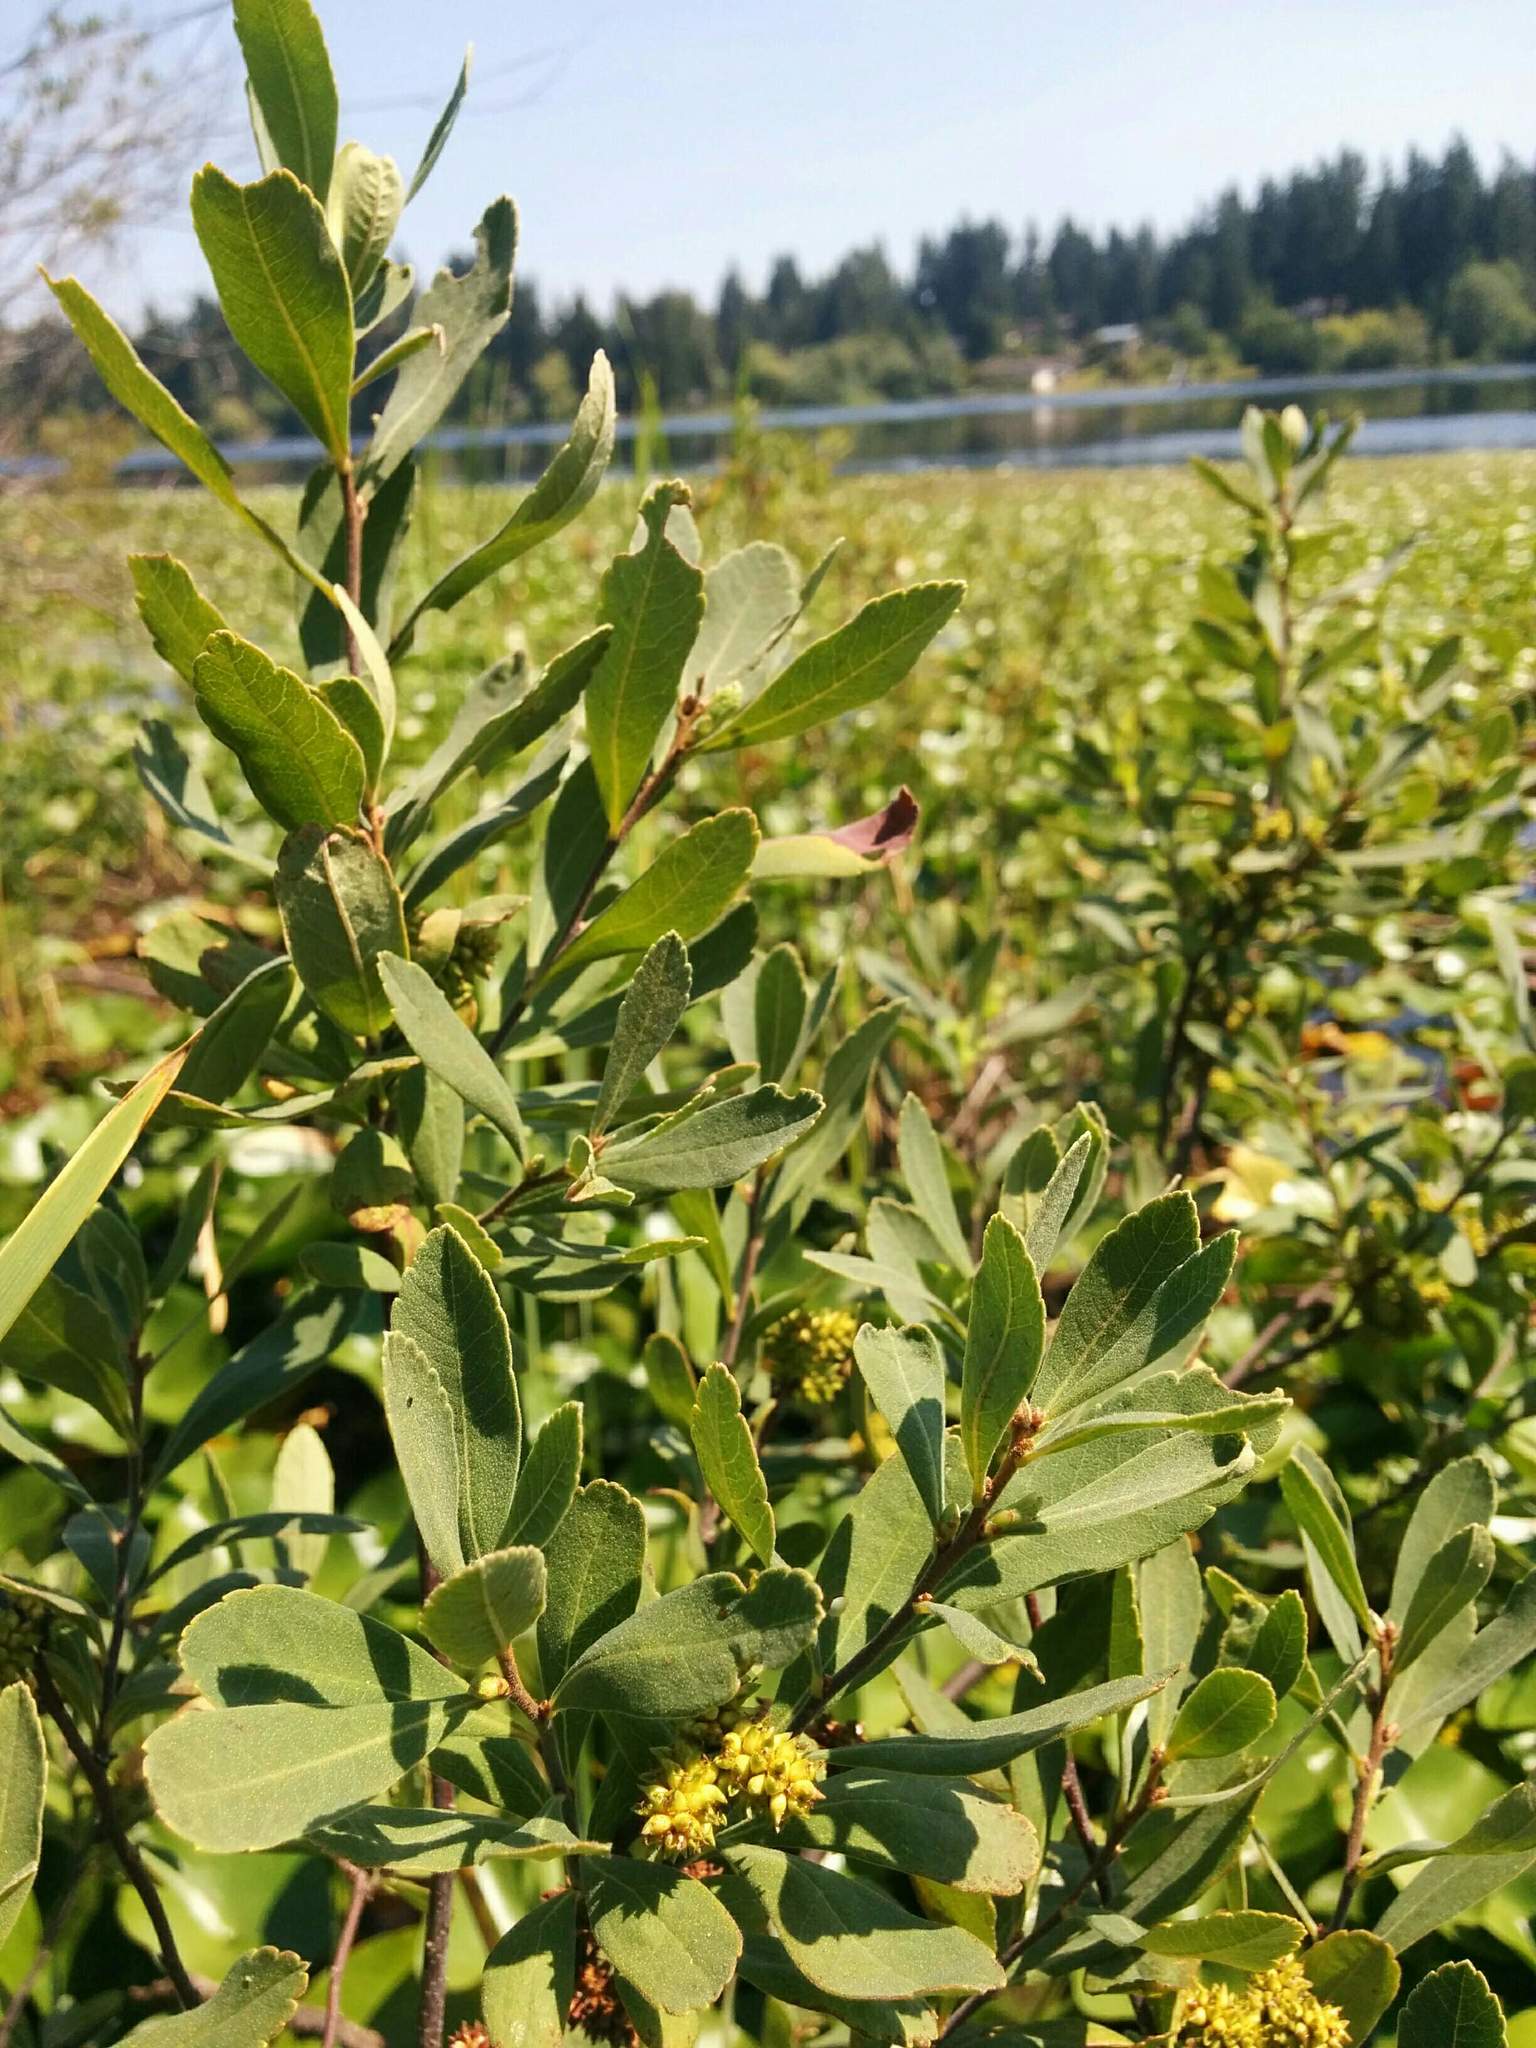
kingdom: Plantae
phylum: Tracheophyta
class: Magnoliopsida
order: Fagales
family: Myricaceae
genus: Myrica
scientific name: Myrica gale
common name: Sweet gale
